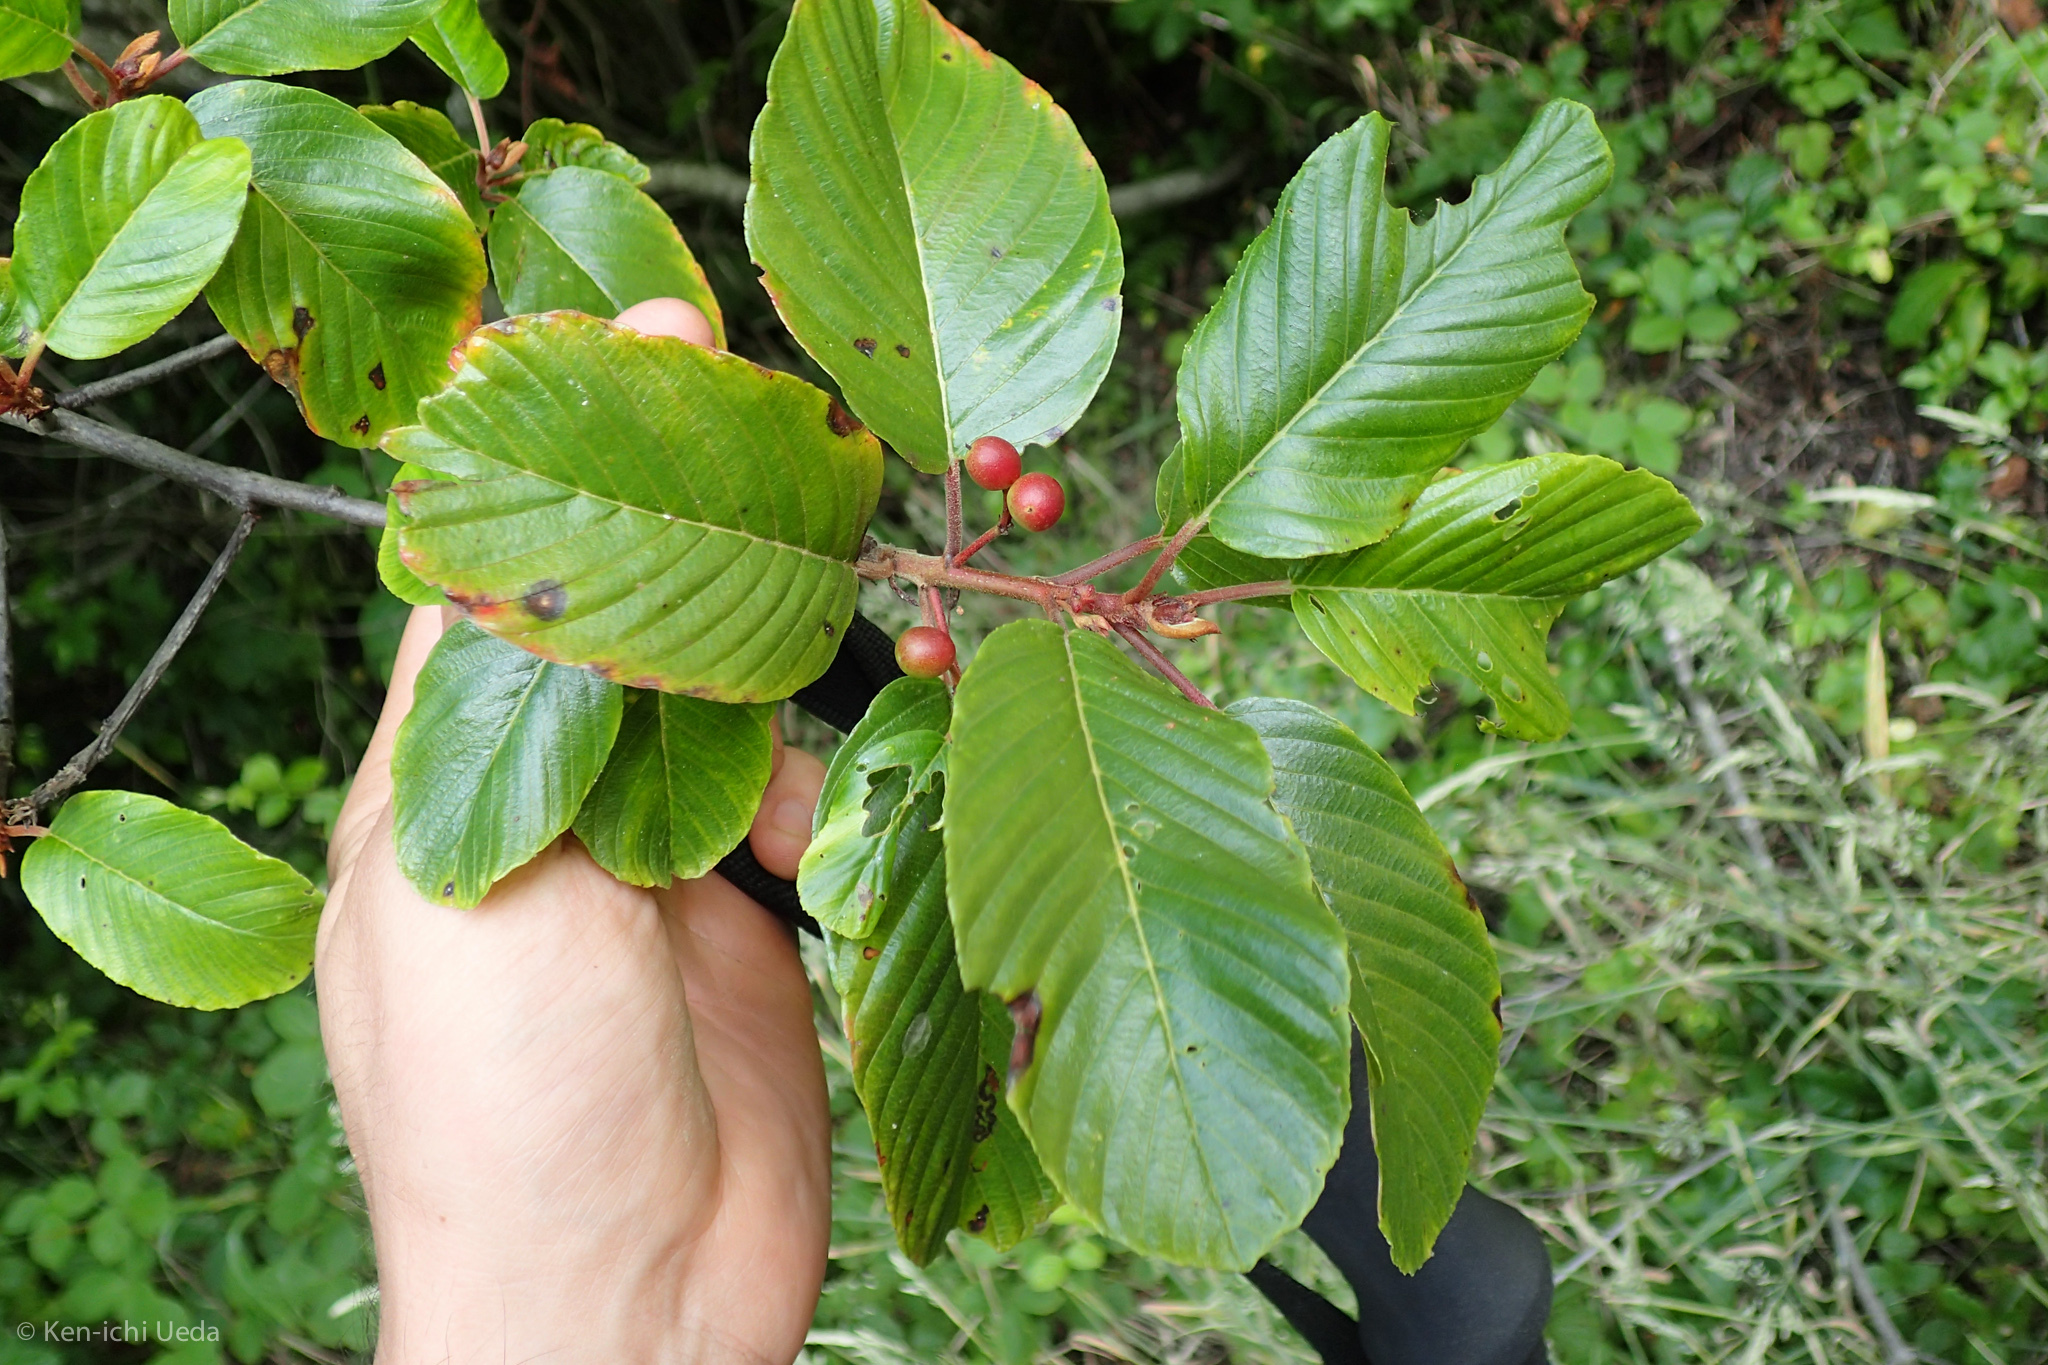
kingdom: Plantae
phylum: Tracheophyta
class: Magnoliopsida
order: Rosales
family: Rhamnaceae
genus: Frangula
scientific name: Frangula purshiana
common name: Cascara buckthorn
